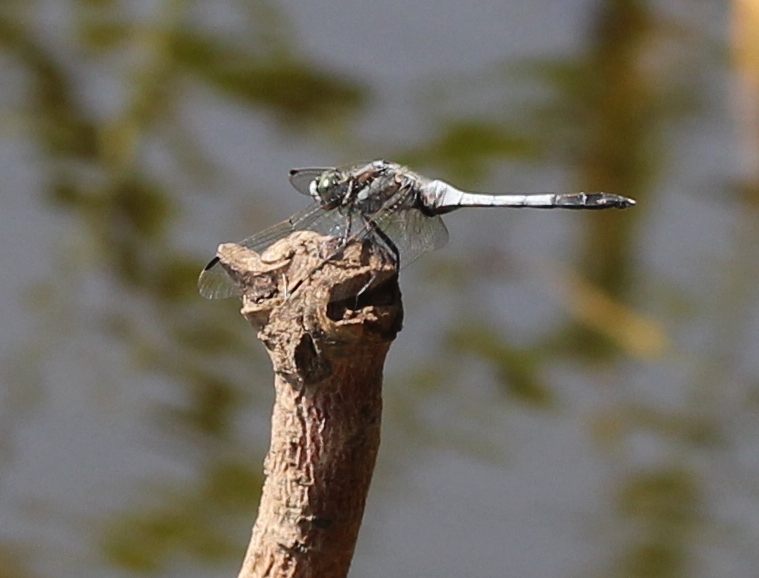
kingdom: Animalia
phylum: Arthropoda
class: Insecta
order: Odonata
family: Libellulidae
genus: Orthetrum
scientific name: Orthetrum albistylum
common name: White-tailed skimmer
